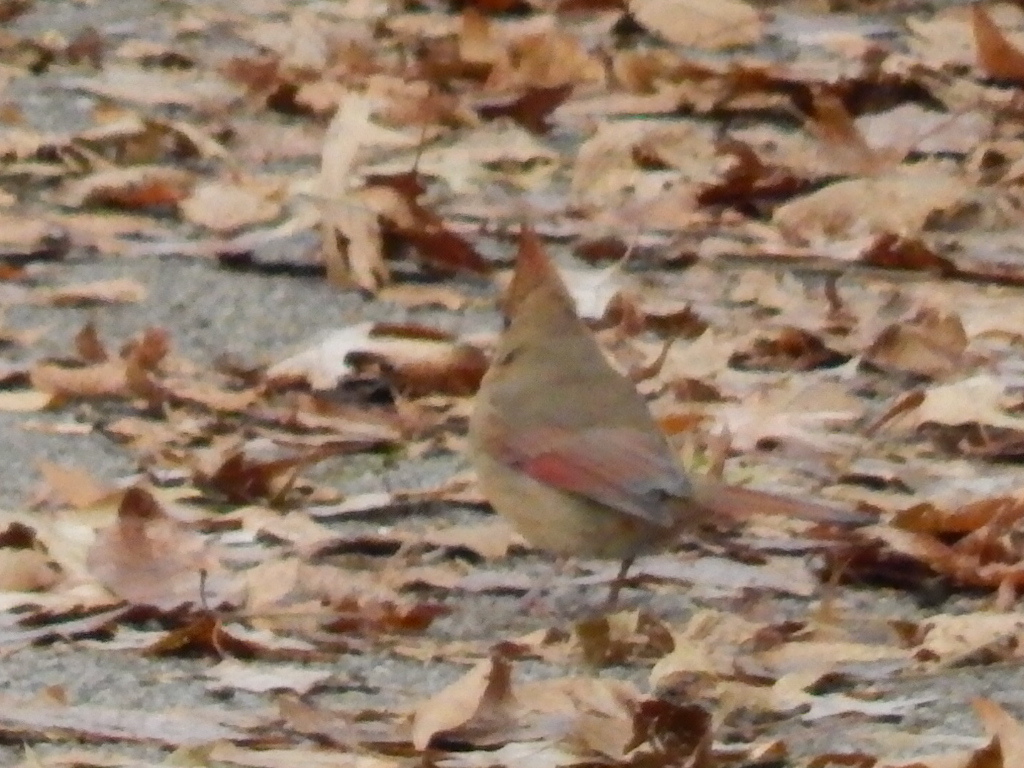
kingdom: Animalia
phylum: Chordata
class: Aves
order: Passeriformes
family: Cardinalidae
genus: Cardinalis
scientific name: Cardinalis cardinalis
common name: Northern cardinal
